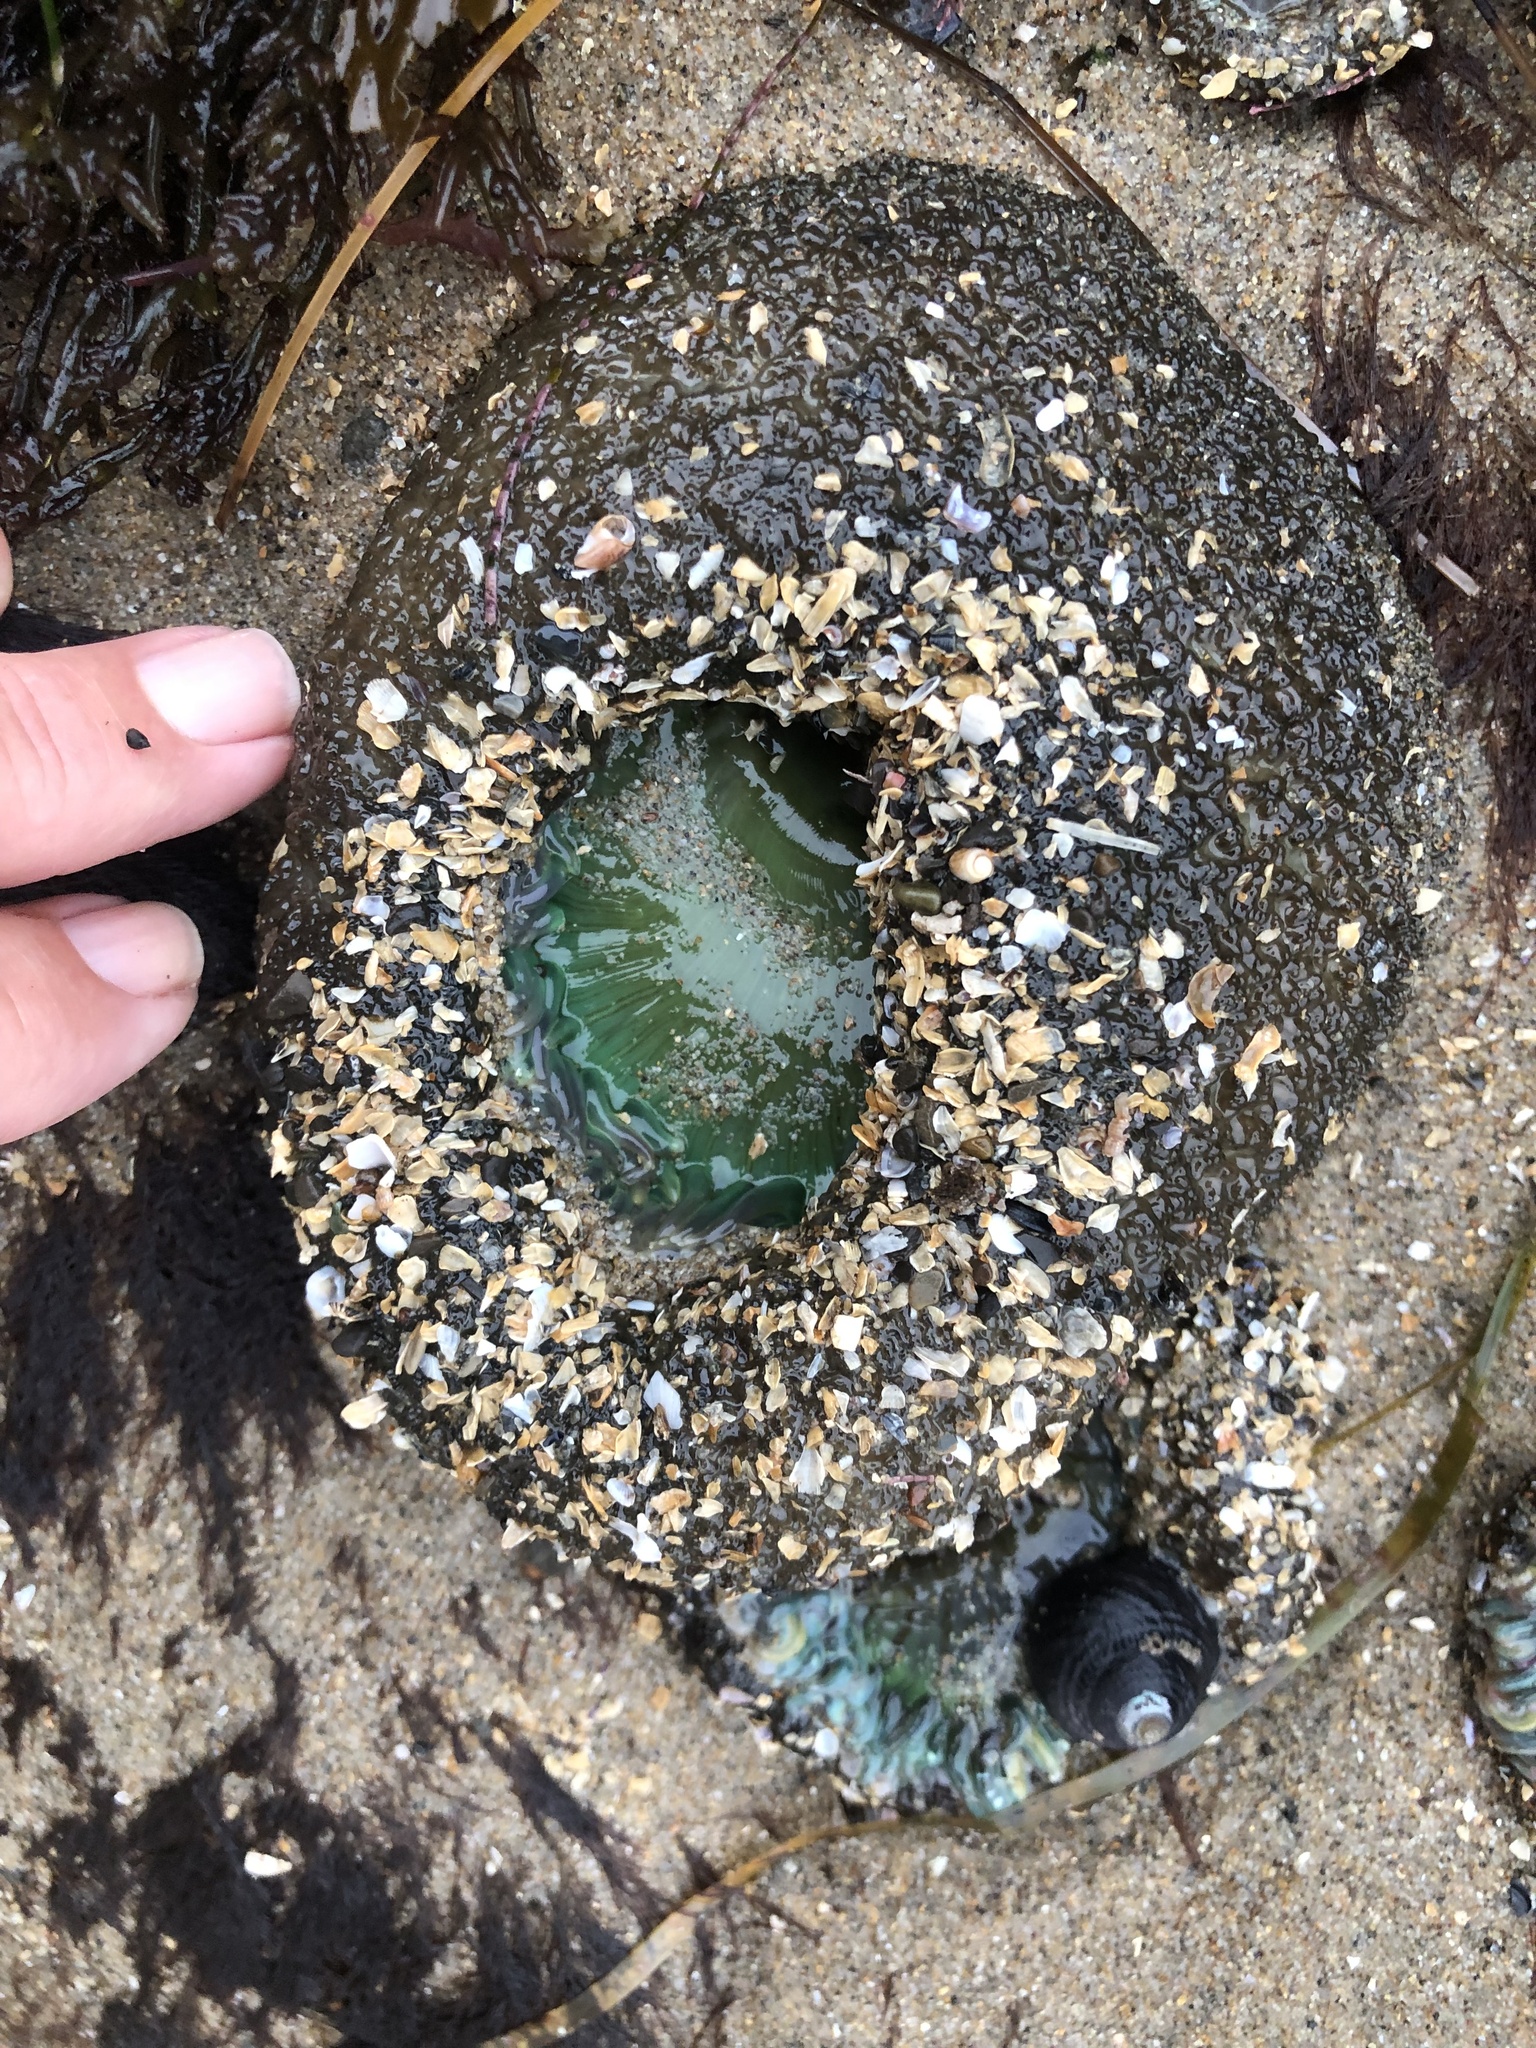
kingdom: Animalia
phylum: Cnidaria
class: Anthozoa
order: Actiniaria
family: Actiniidae
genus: Anthopleura
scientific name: Anthopleura xanthogrammica
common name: Giant green anemone
